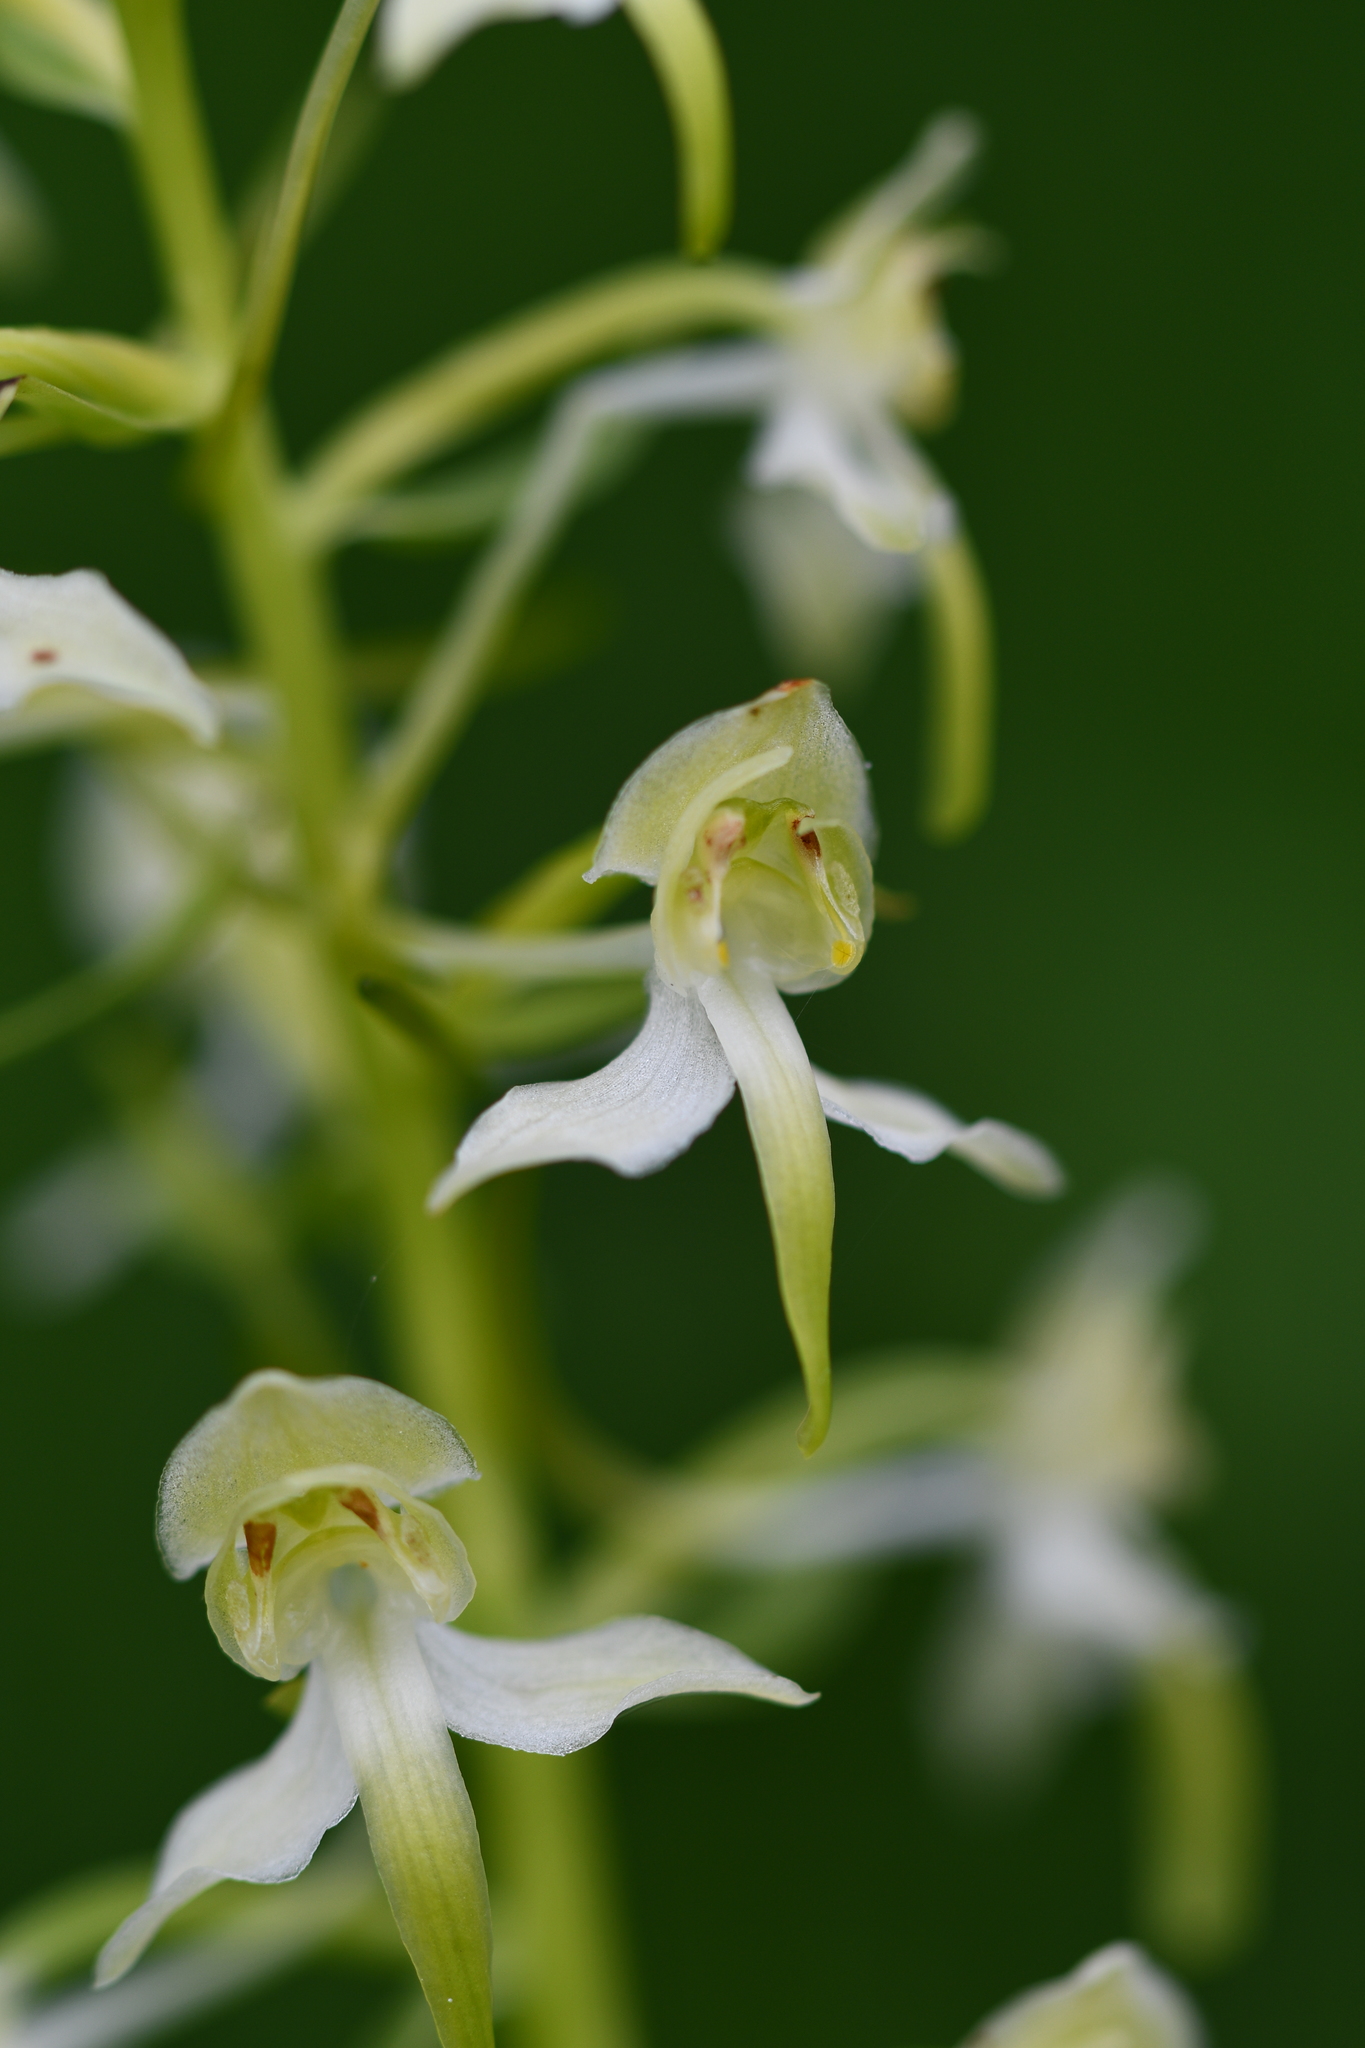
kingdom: Plantae
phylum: Tracheophyta
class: Liliopsida
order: Asparagales
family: Orchidaceae
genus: Platanthera
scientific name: Platanthera chlorantha
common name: Greater butterfly-orchid
